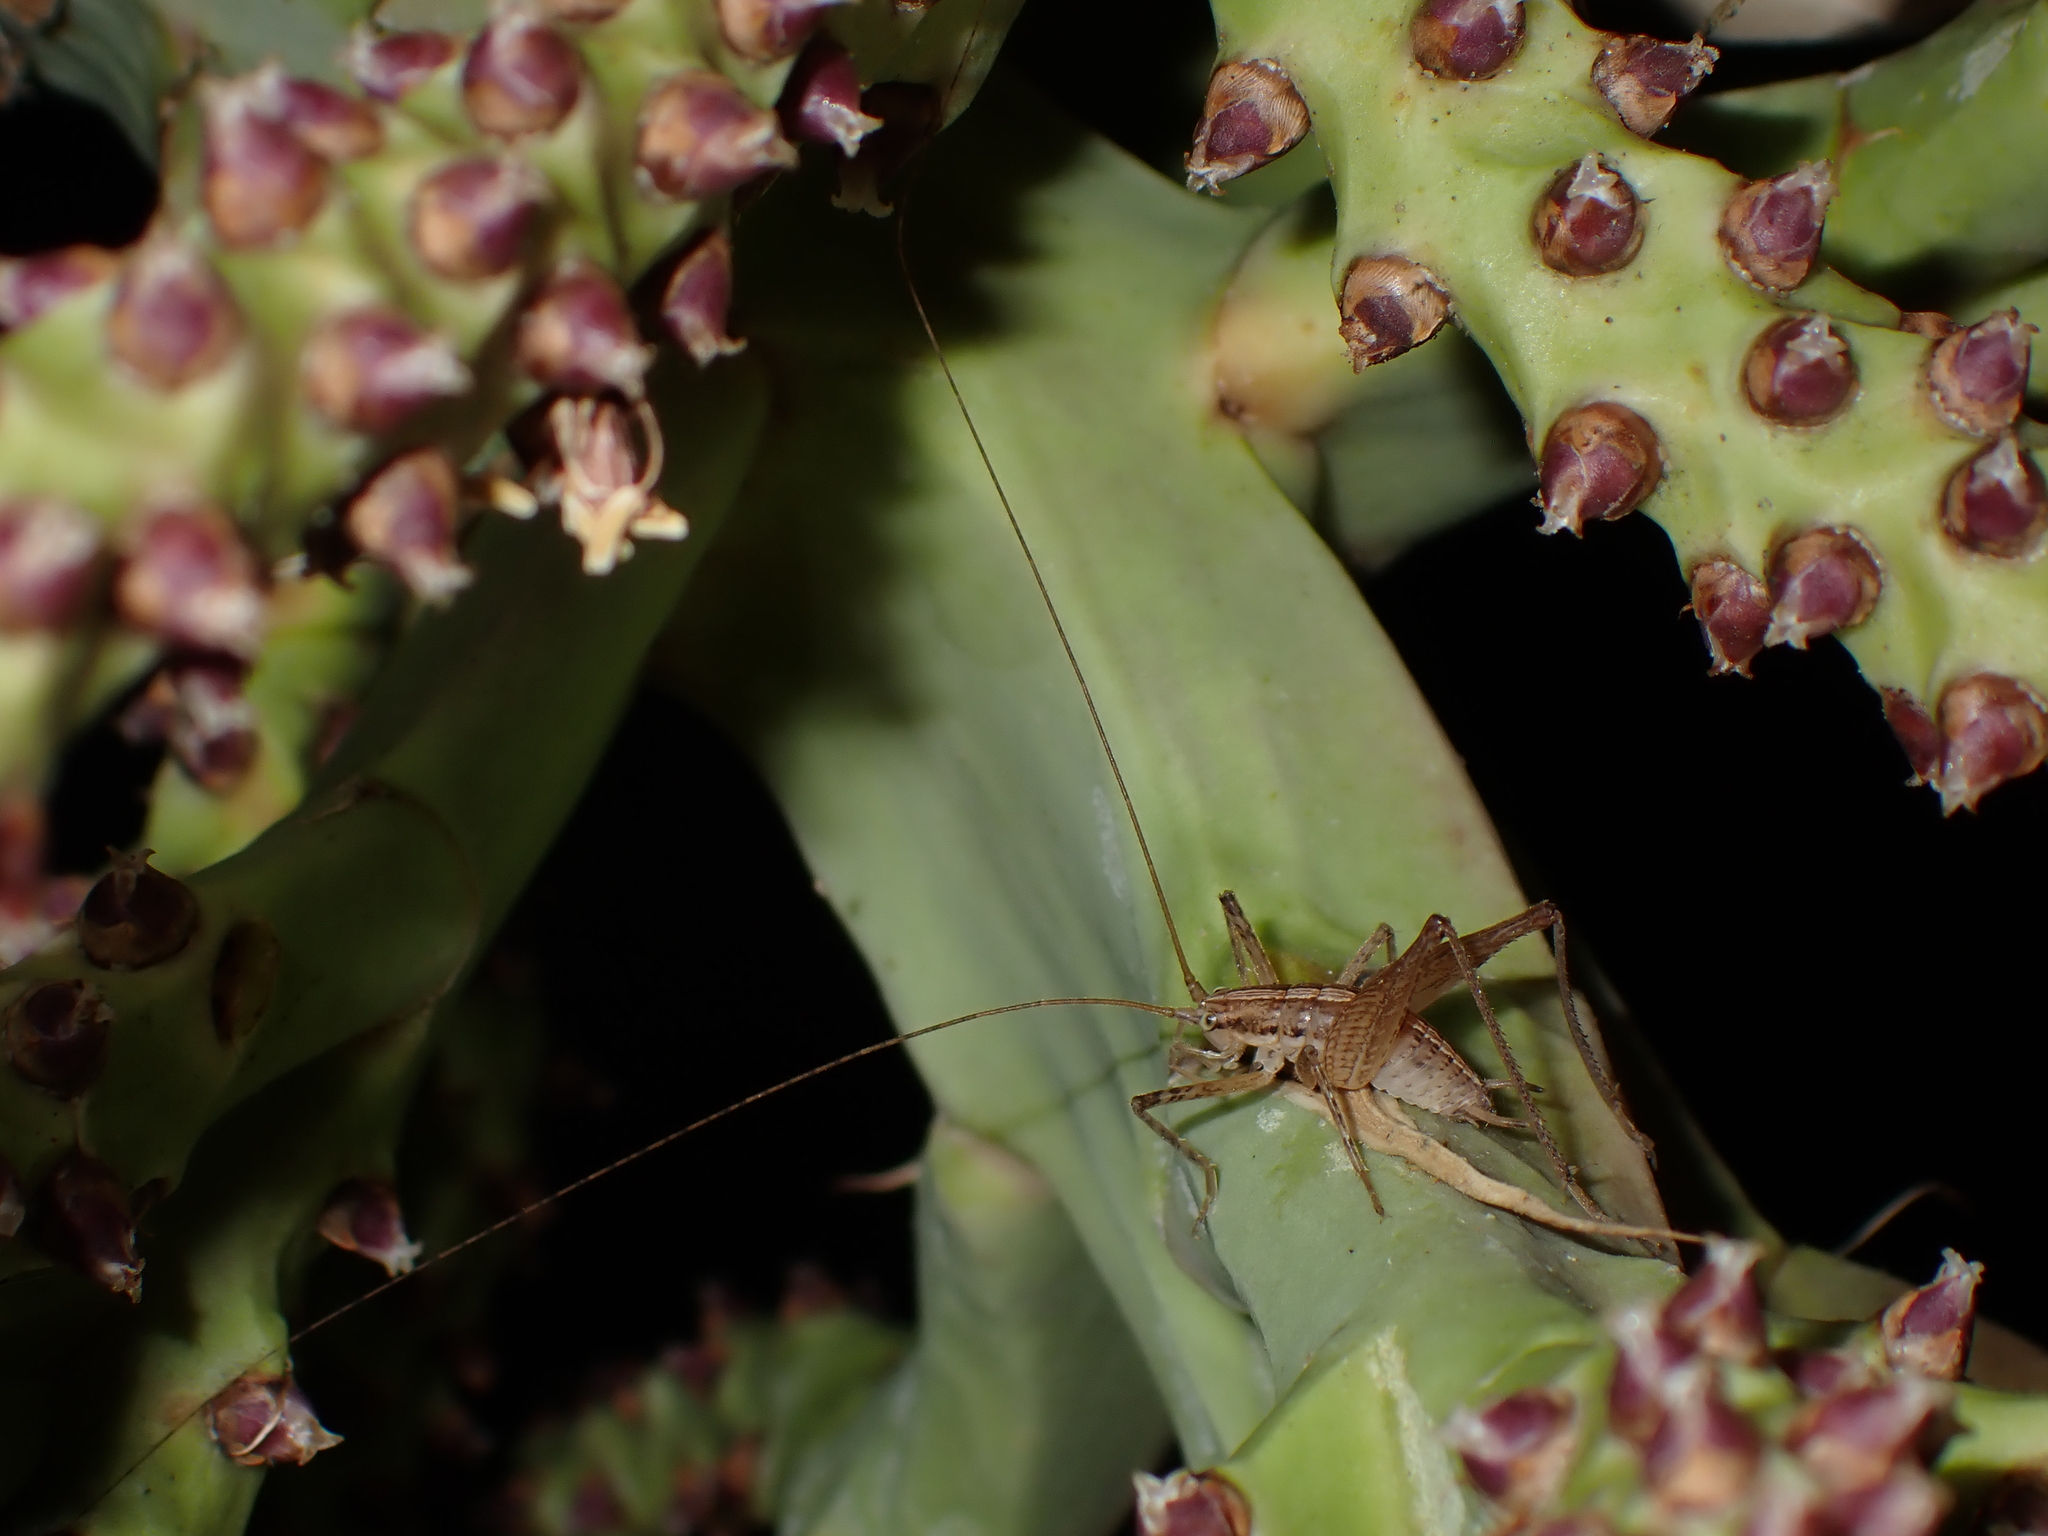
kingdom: Animalia
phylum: Arthropoda
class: Insecta
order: Orthoptera
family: Rhaphidophoridae
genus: Talitropsis
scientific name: Talitropsis poduroides
